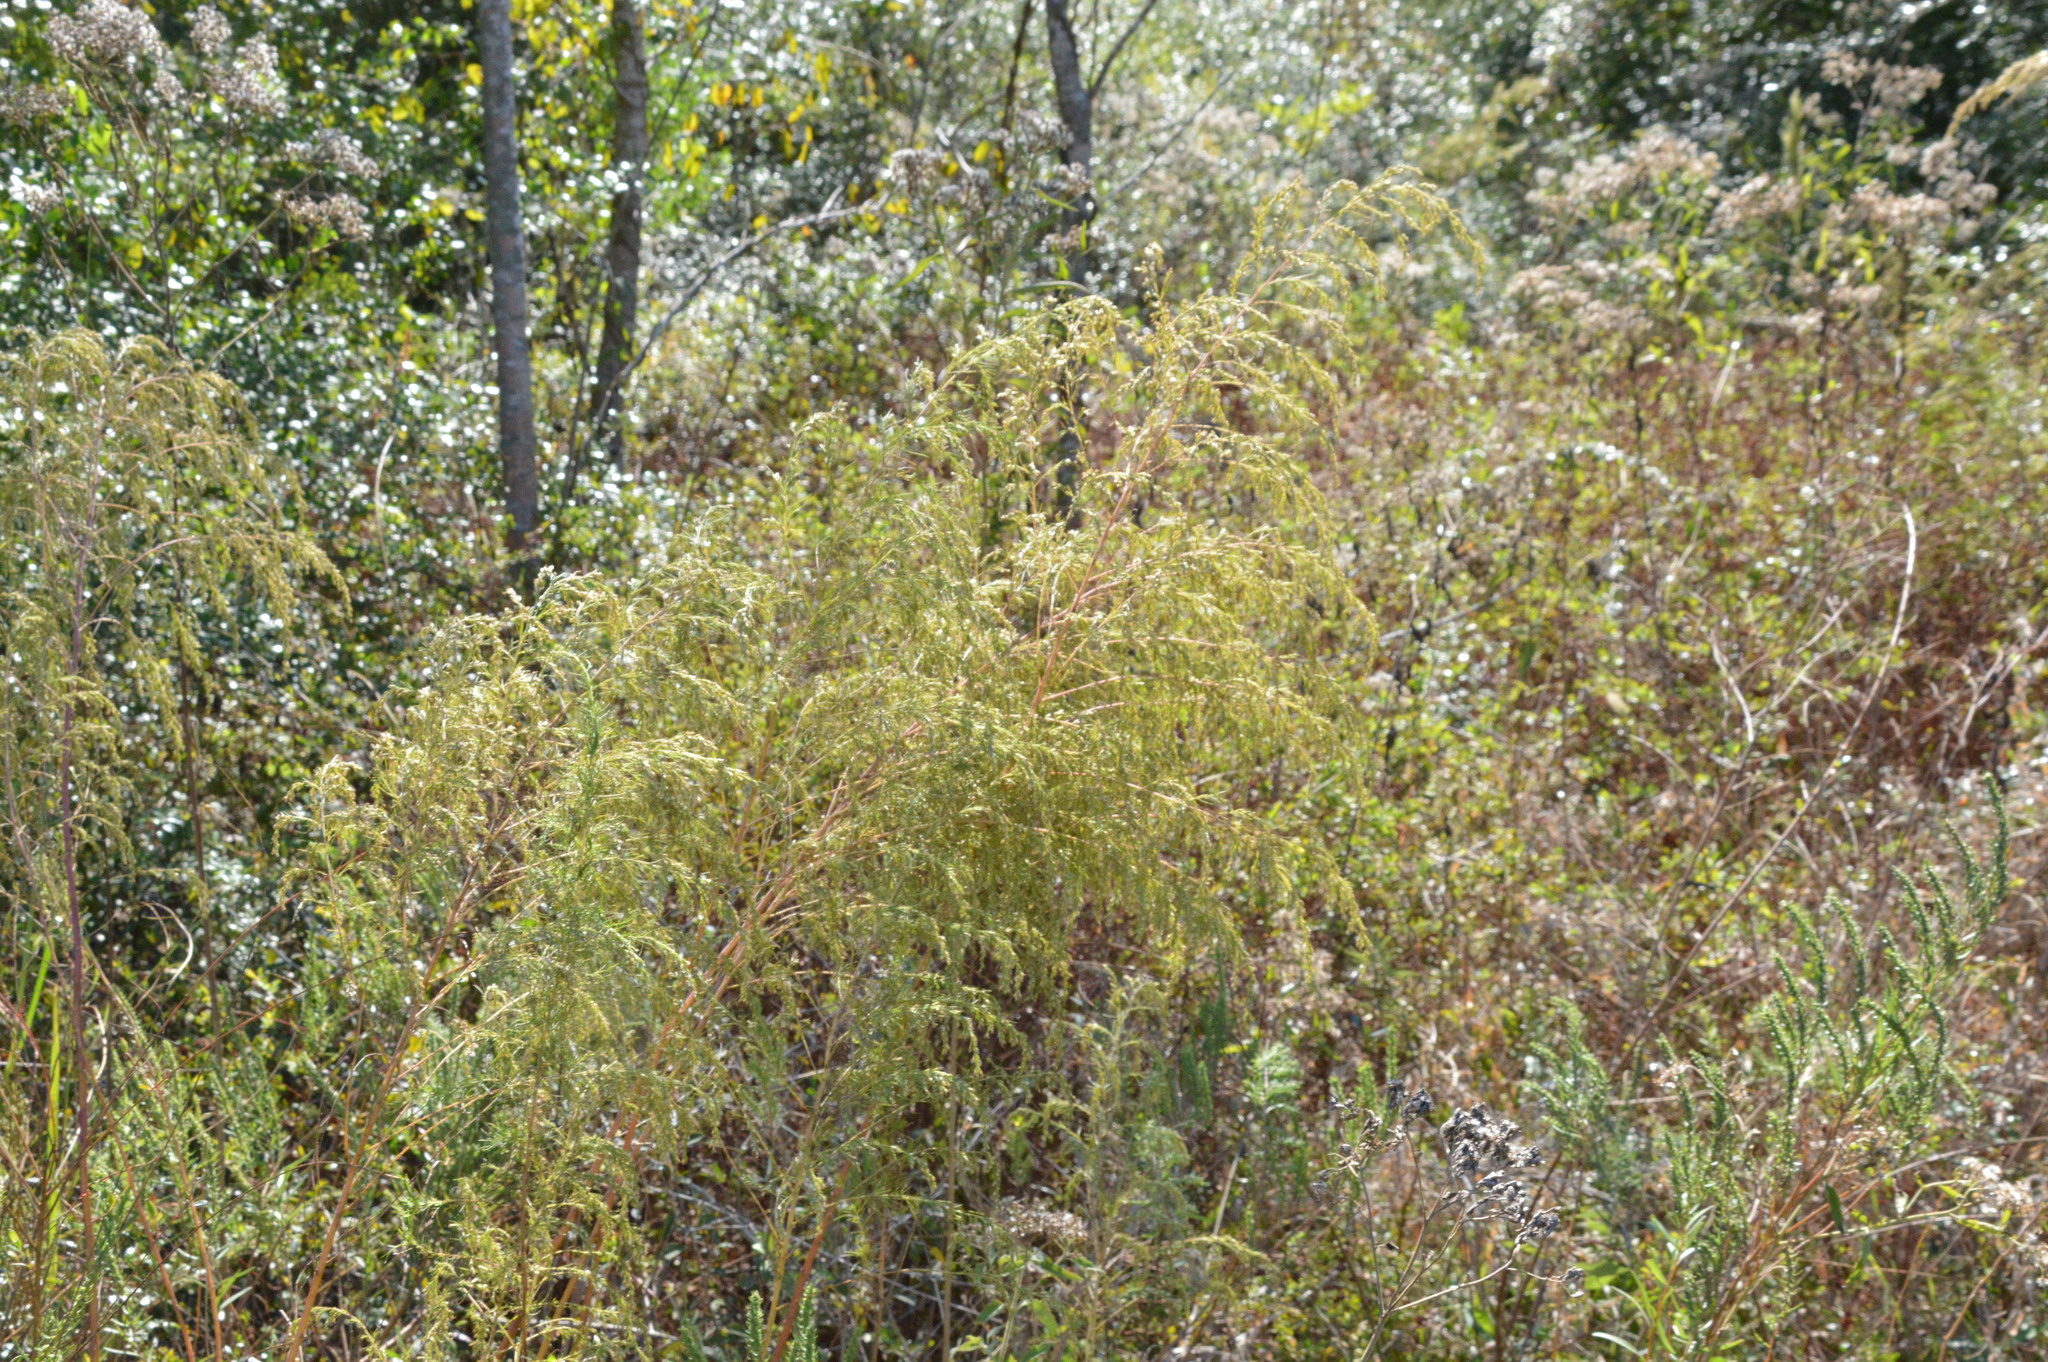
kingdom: Plantae
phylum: Tracheophyta
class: Magnoliopsida
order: Asterales
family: Asteraceae
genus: Eupatorium
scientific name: Eupatorium capillifolium
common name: Dog-fennel
